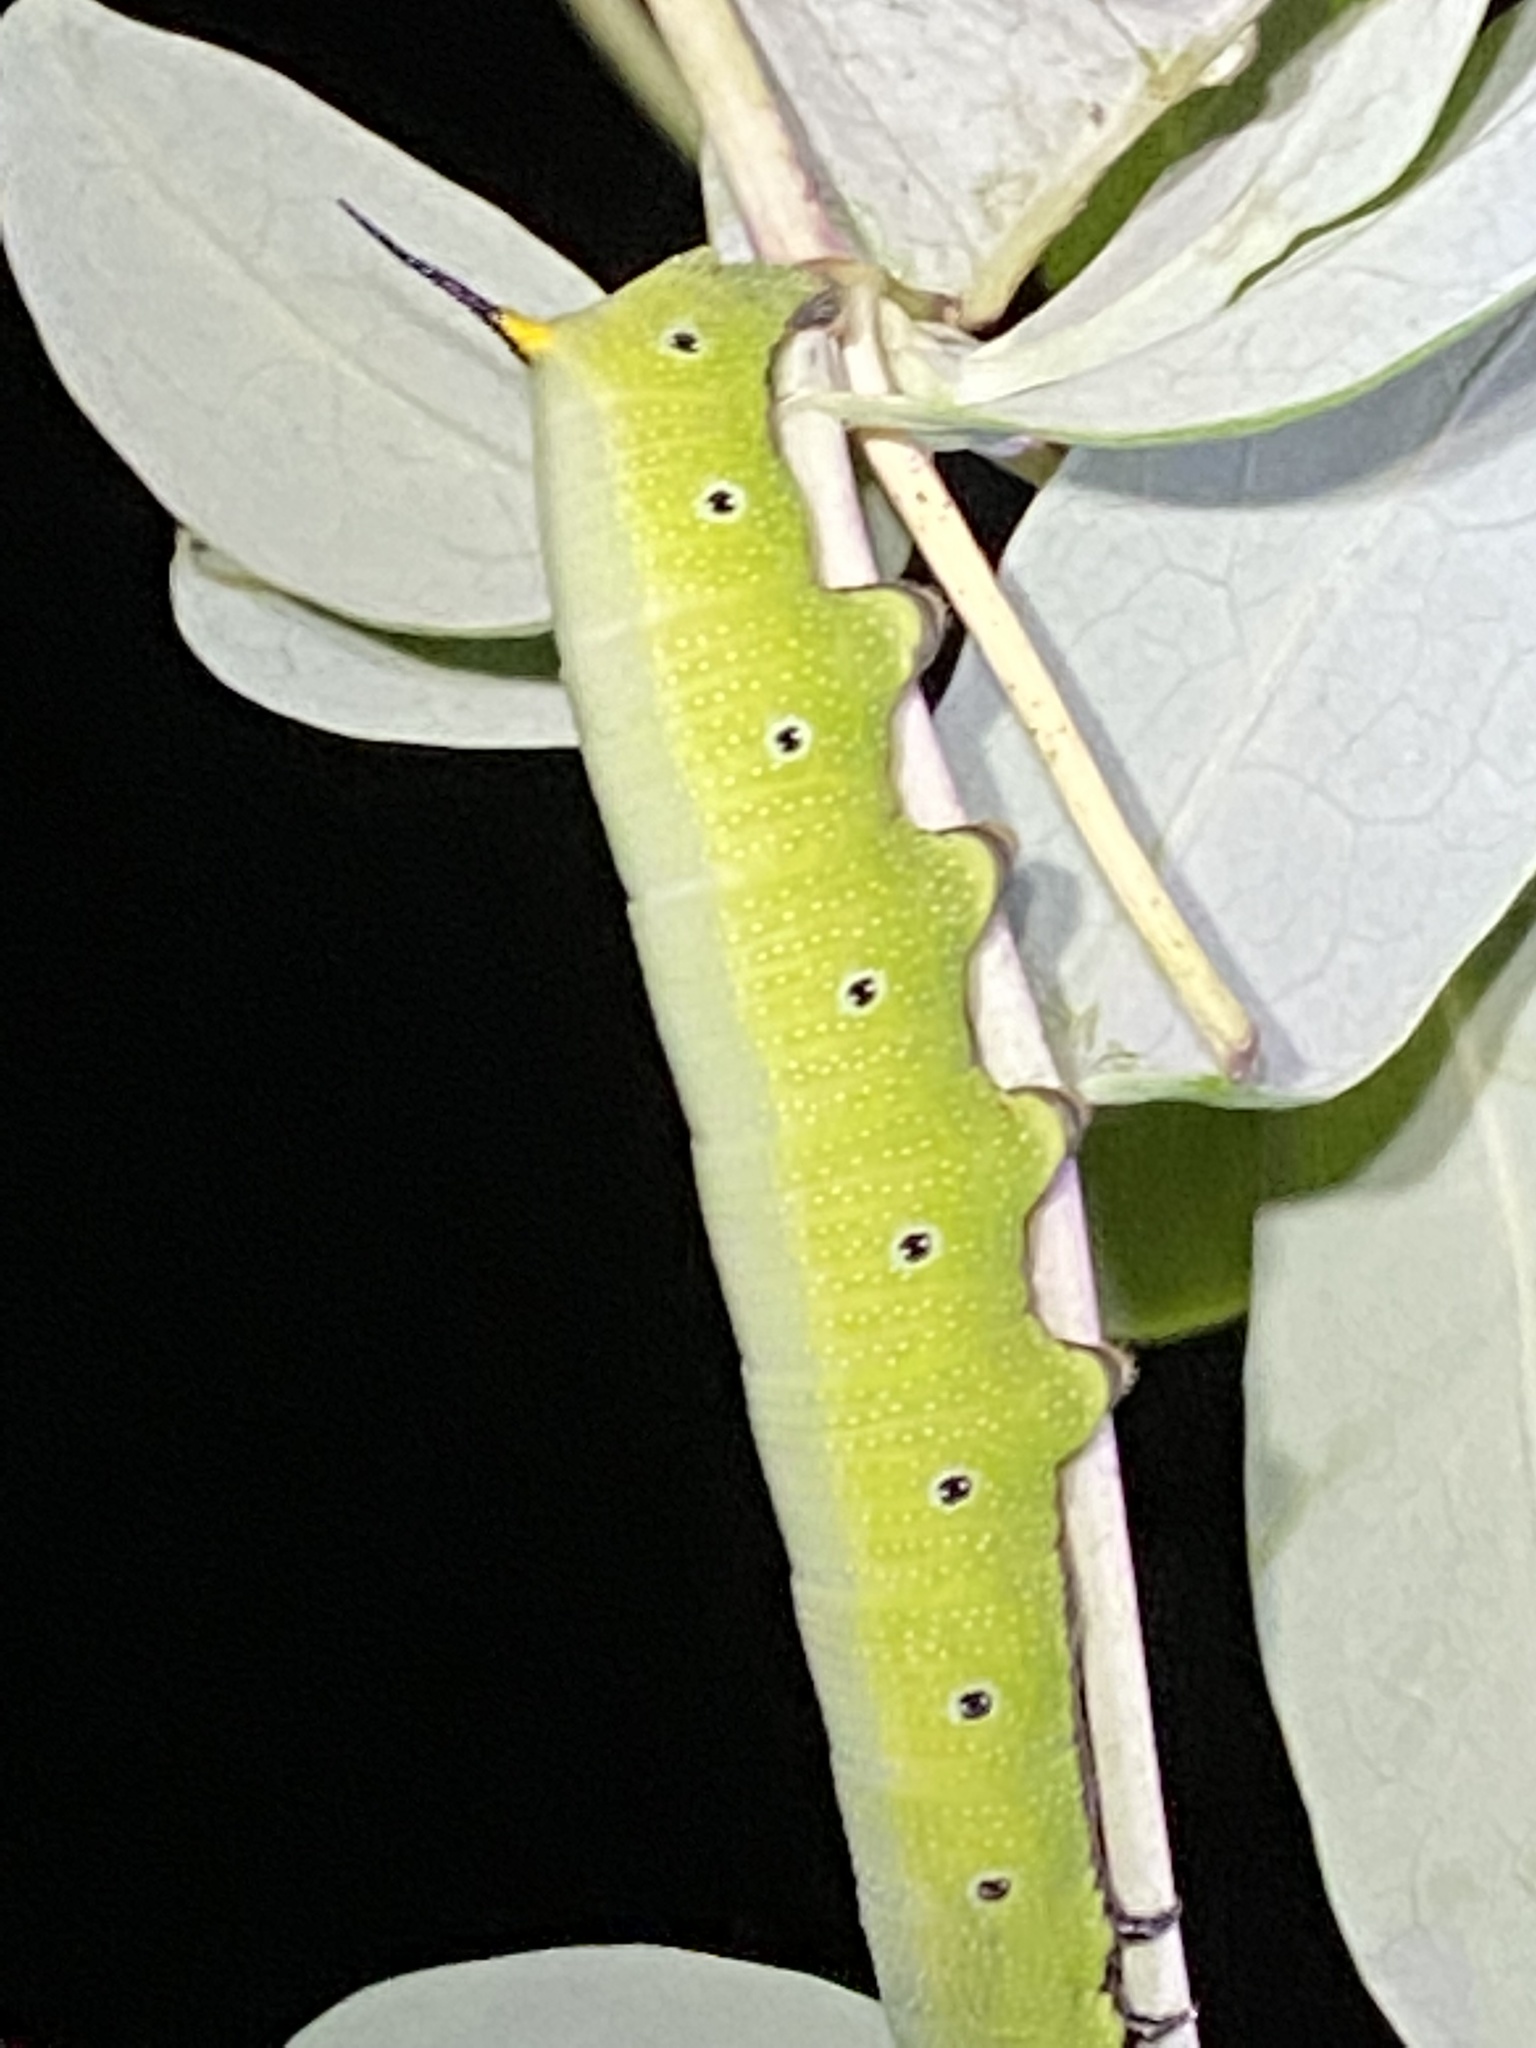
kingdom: Animalia
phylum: Arthropoda
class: Insecta
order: Lepidoptera
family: Sphingidae
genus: Hemaris
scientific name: Hemaris diffinis
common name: Bumblebee moth
